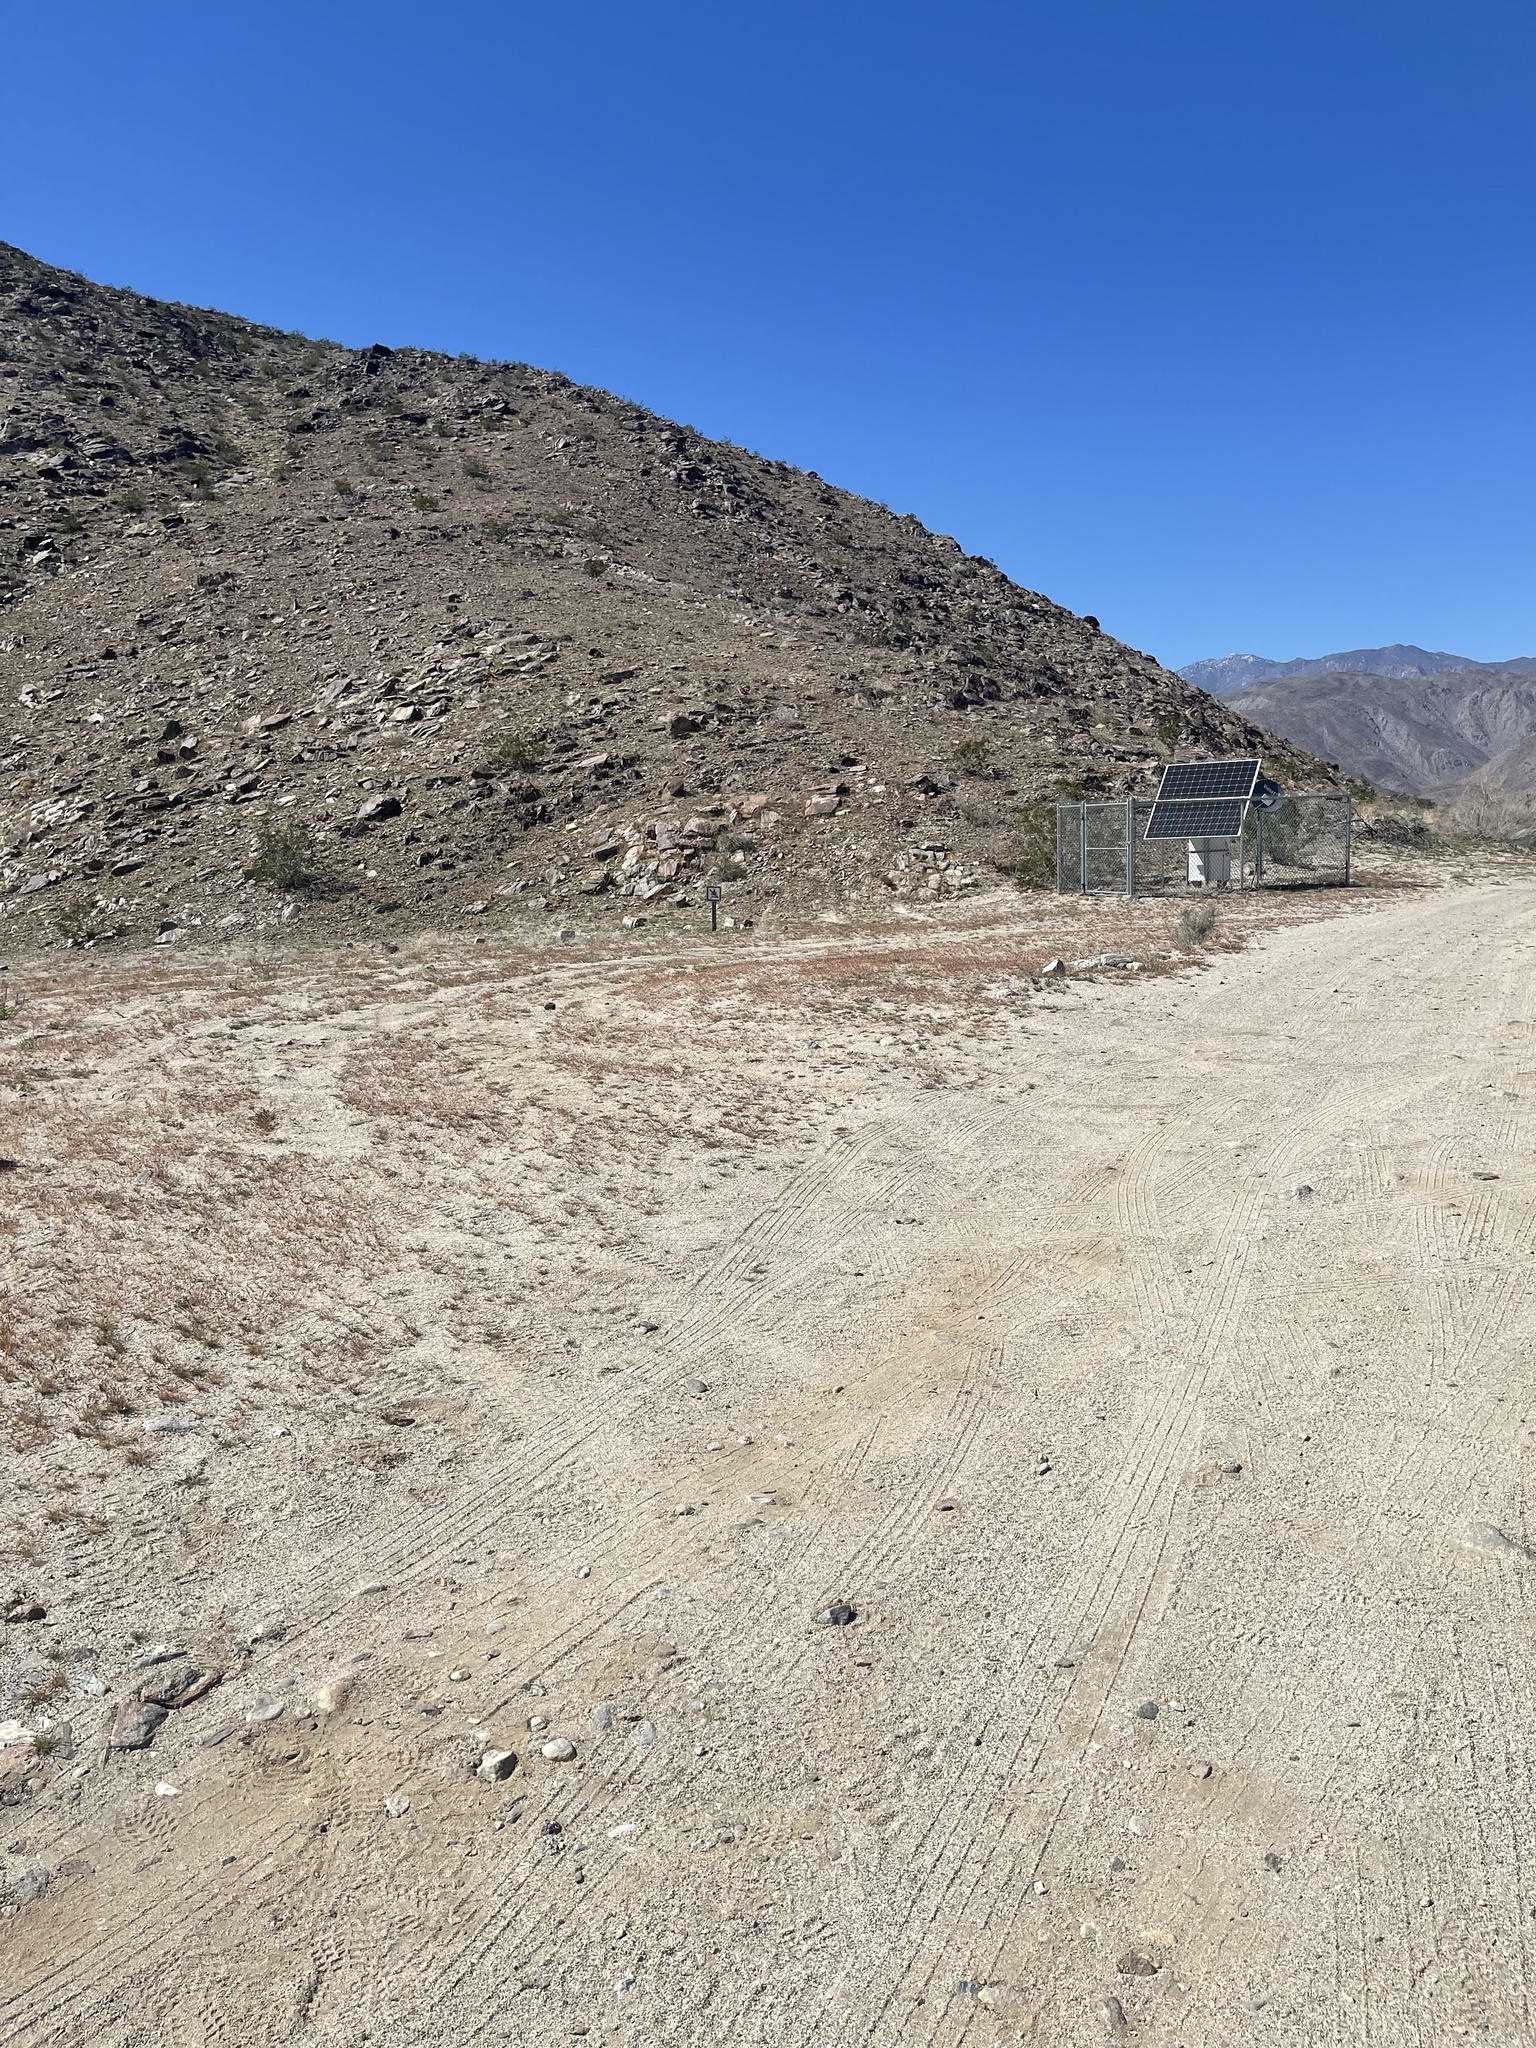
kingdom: Plantae
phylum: Tracheophyta
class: Magnoliopsida
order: Ranunculales
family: Papaveraceae
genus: Eschscholzia
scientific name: Eschscholzia parishii
